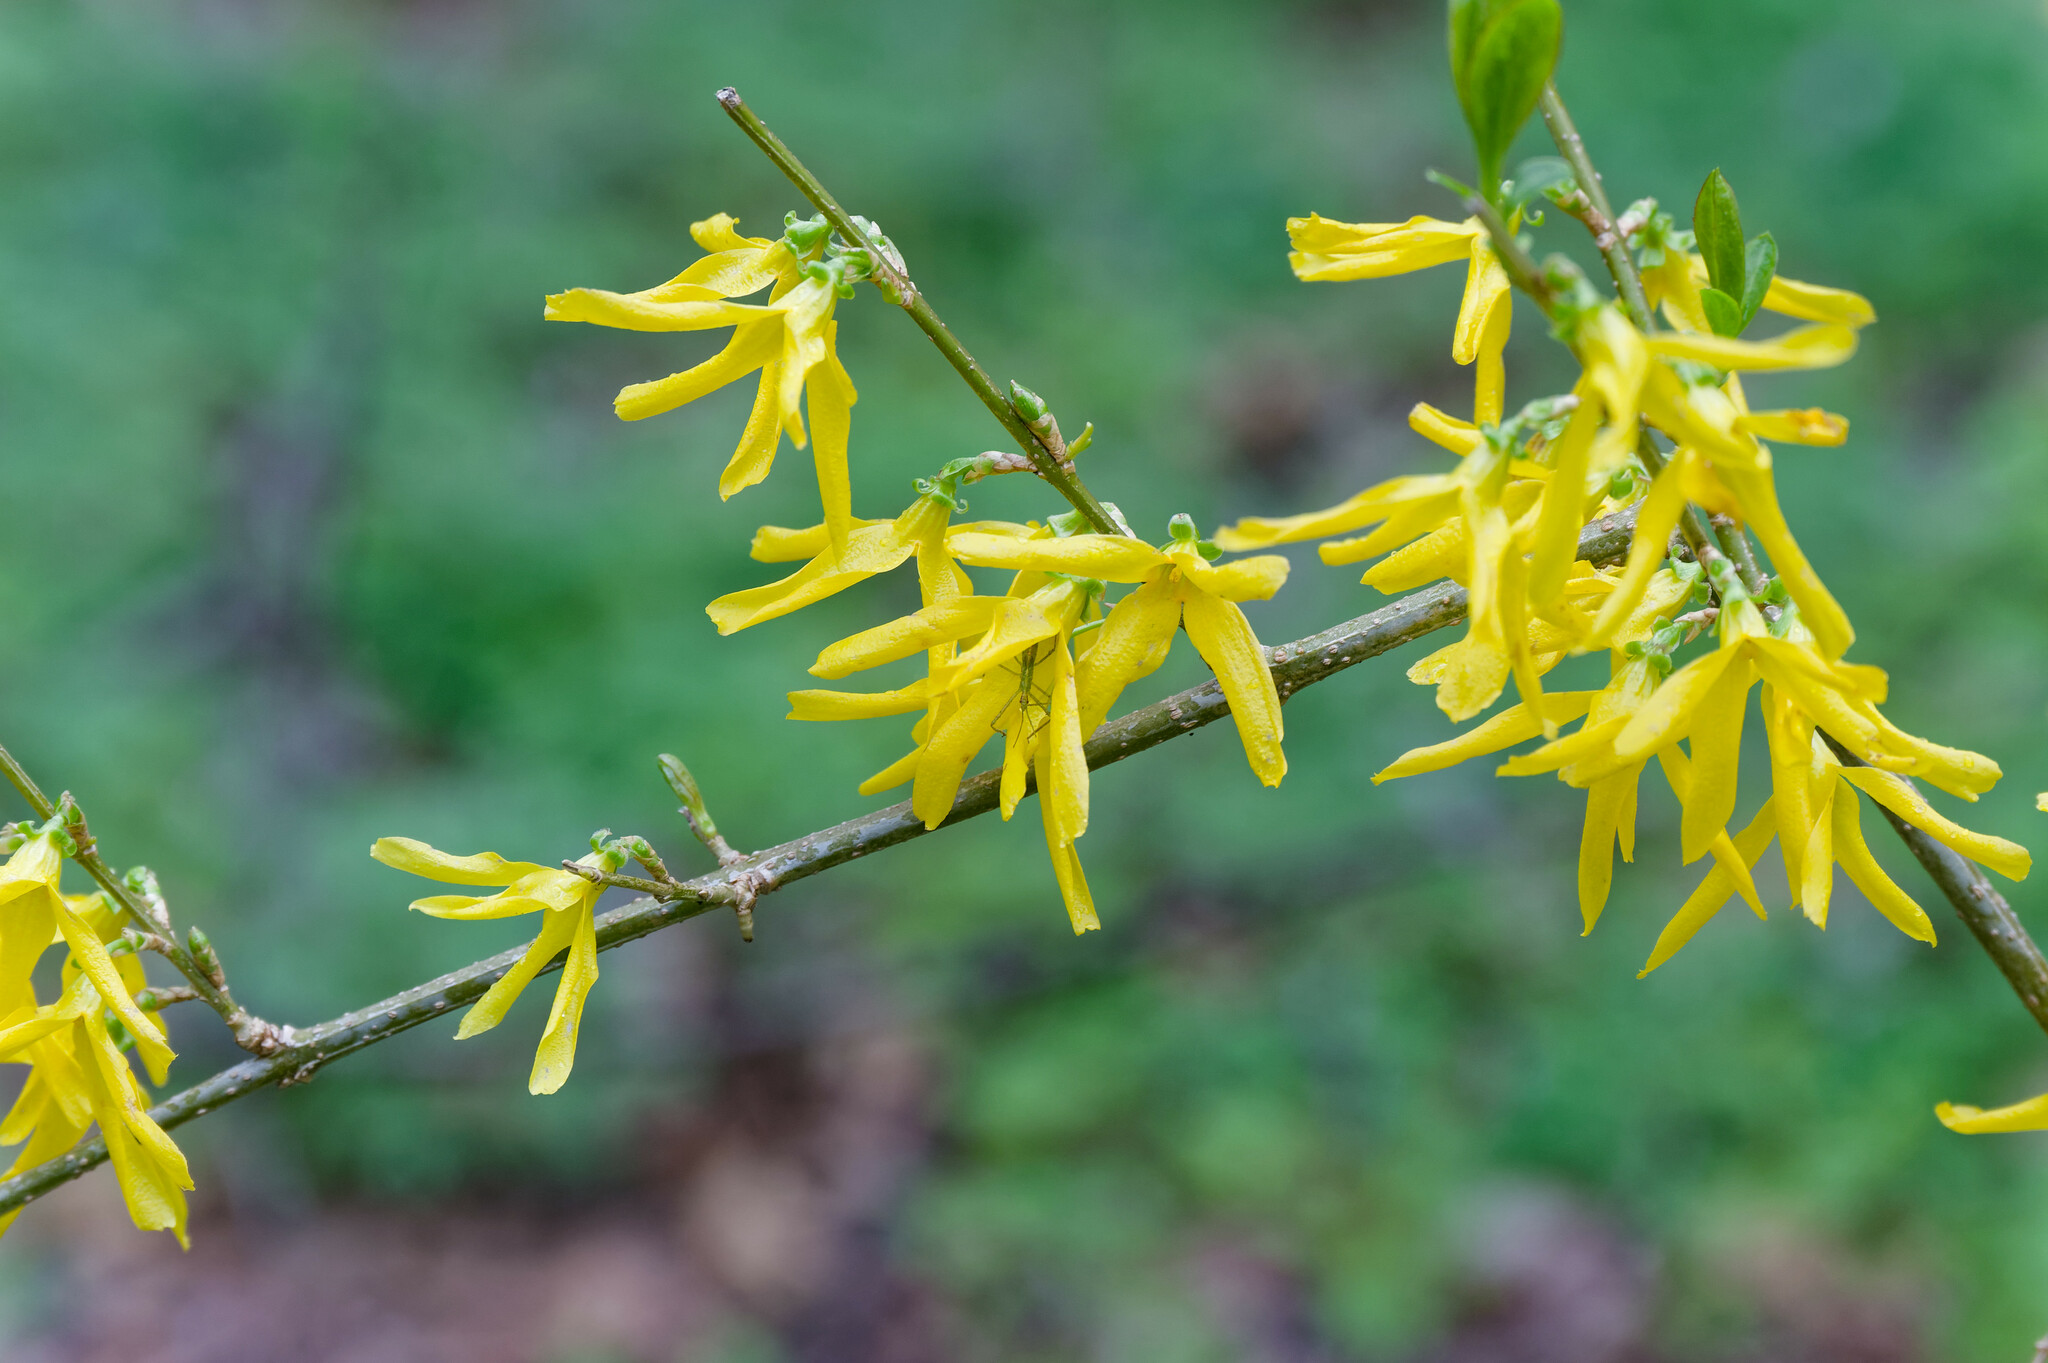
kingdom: Plantae
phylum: Tracheophyta
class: Magnoliopsida
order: Saxifragales
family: Hamamelidaceae
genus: Hamamelis
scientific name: Hamamelis virginiana
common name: Witch-hazel
